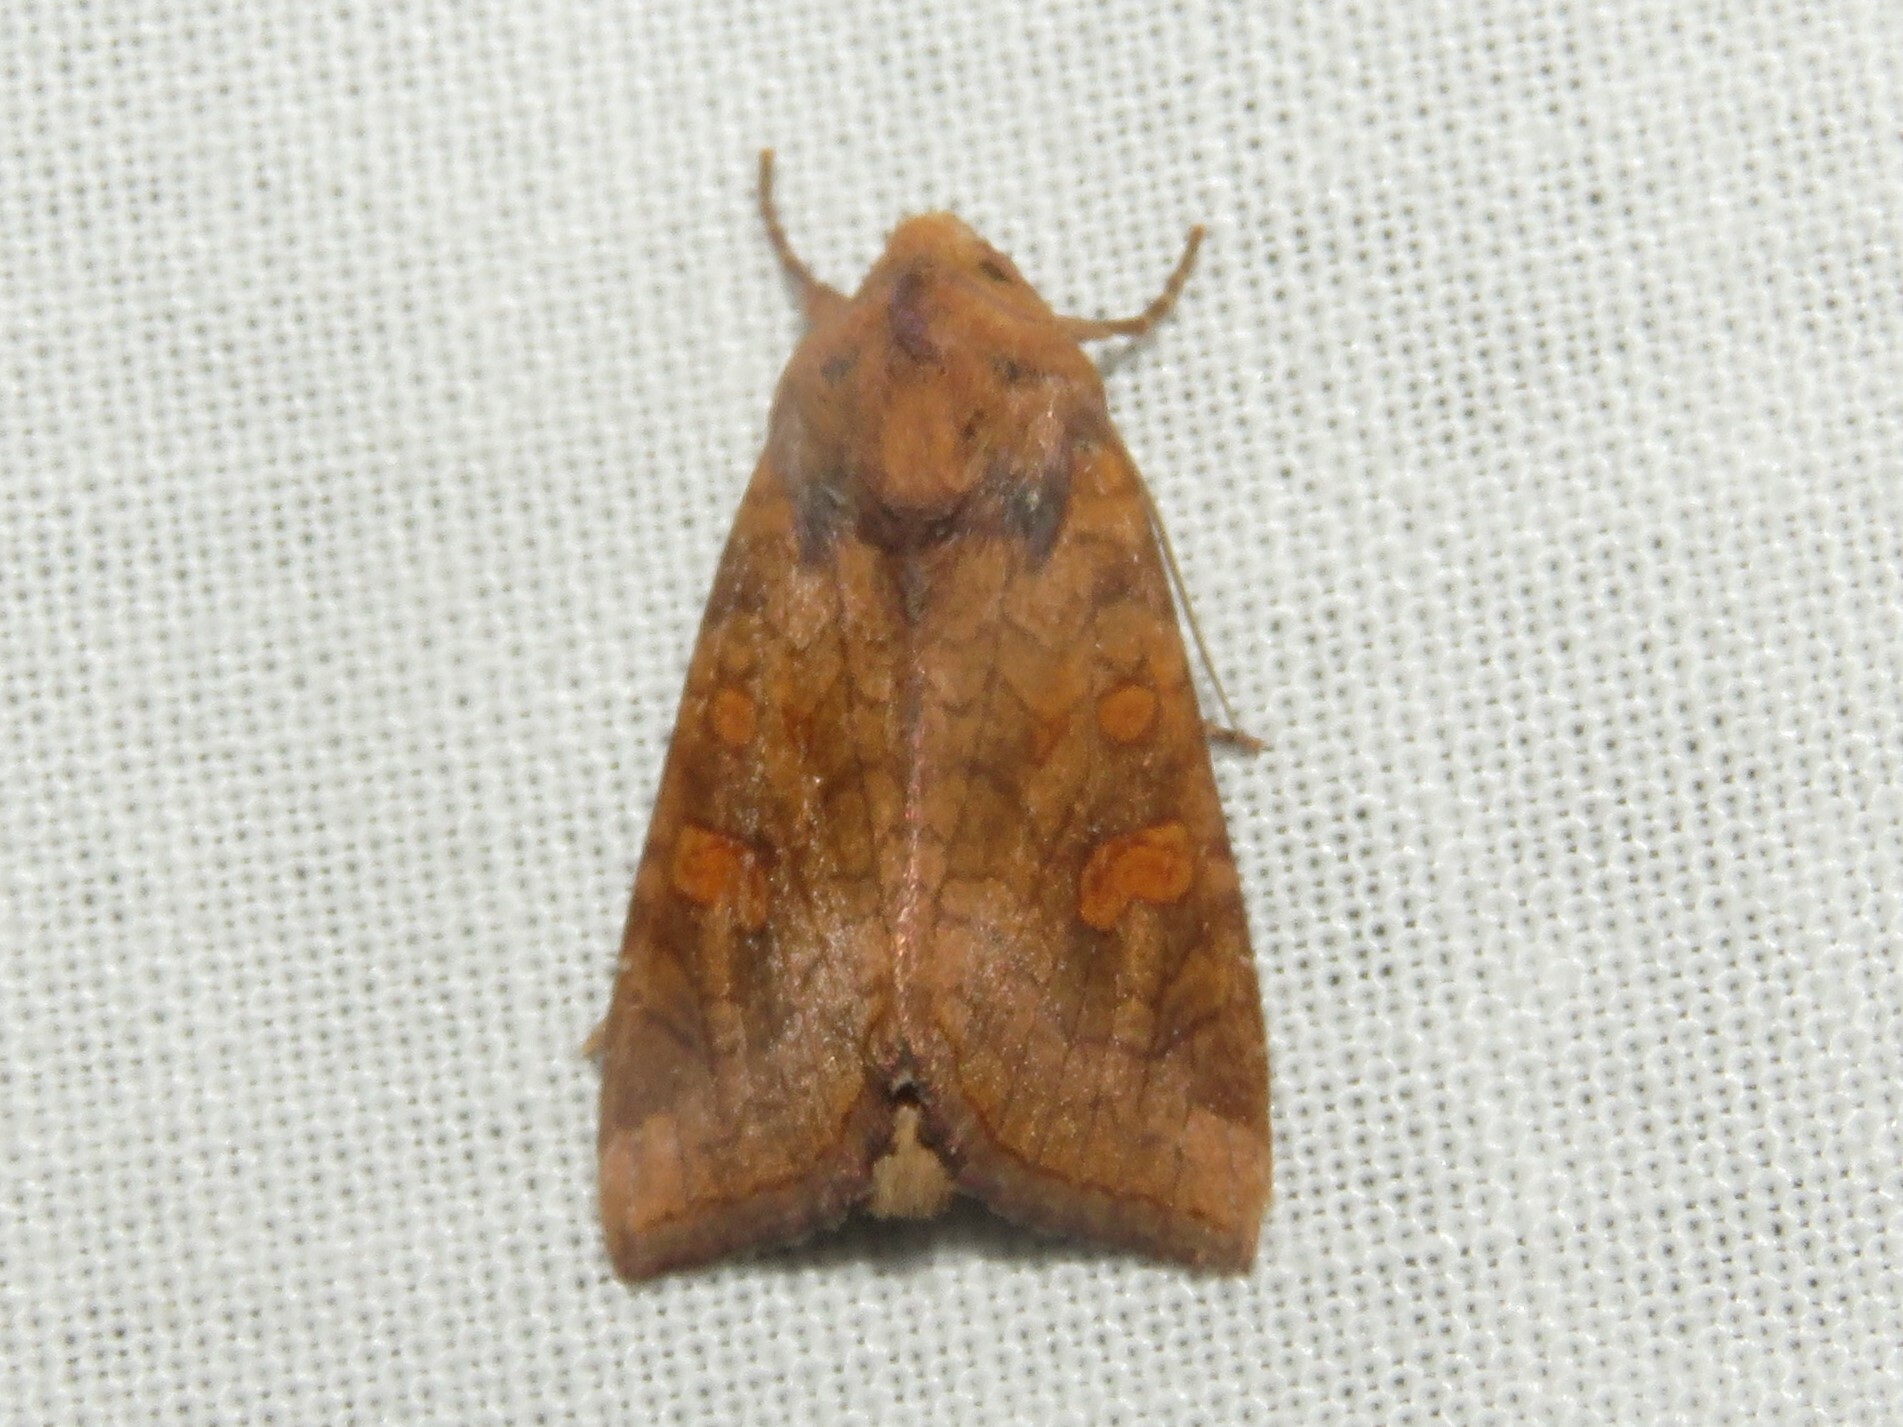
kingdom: Animalia
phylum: Arthropoda
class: Insecta
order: Lepidoptera
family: Noctuidae
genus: Amphipoea
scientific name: Amphipoea americana
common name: American ear moth
